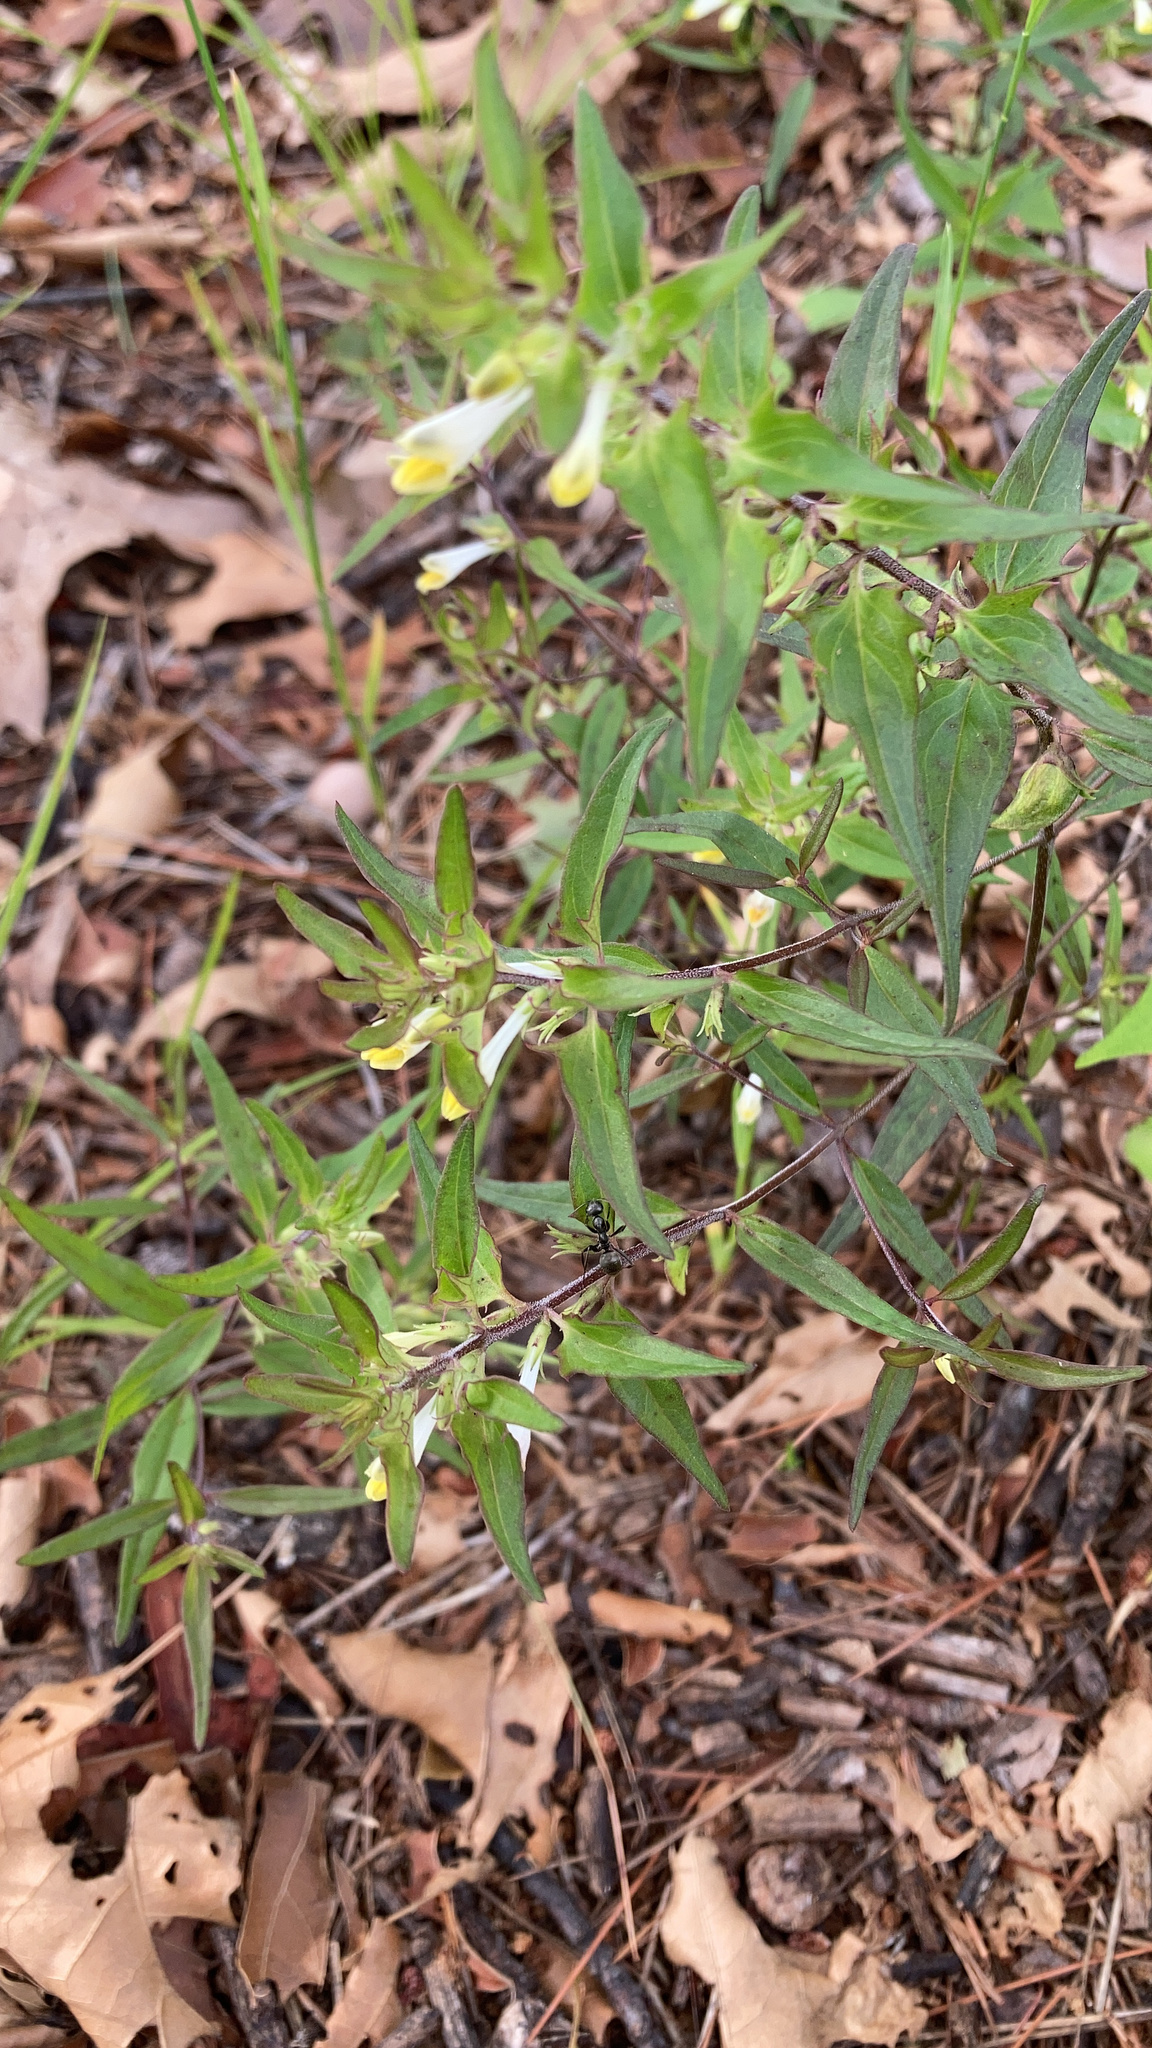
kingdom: Plantae
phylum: Tracheophyta
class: Magnoliopsida
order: Lamiales
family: Orobanchaceae
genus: Melampyrum
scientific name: Melampyrum lineare
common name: American cow-wheat
